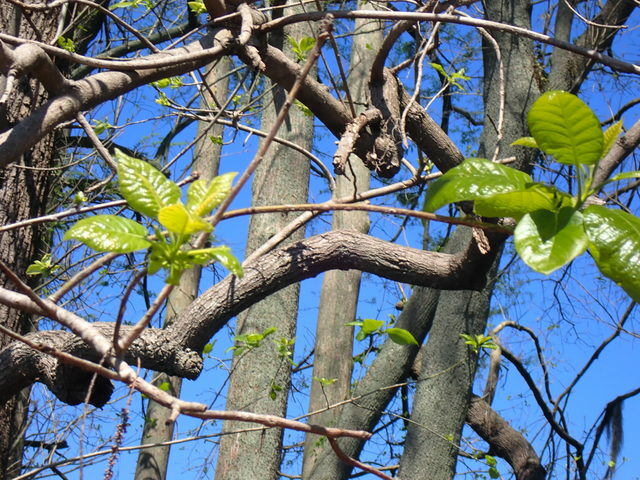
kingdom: Plantae
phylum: Tracheophyta
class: Magnoliopsida
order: Cornales
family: Nyssaceae
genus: Nyssa
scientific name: Nyssa ogeche
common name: Ogeechee tupelo
